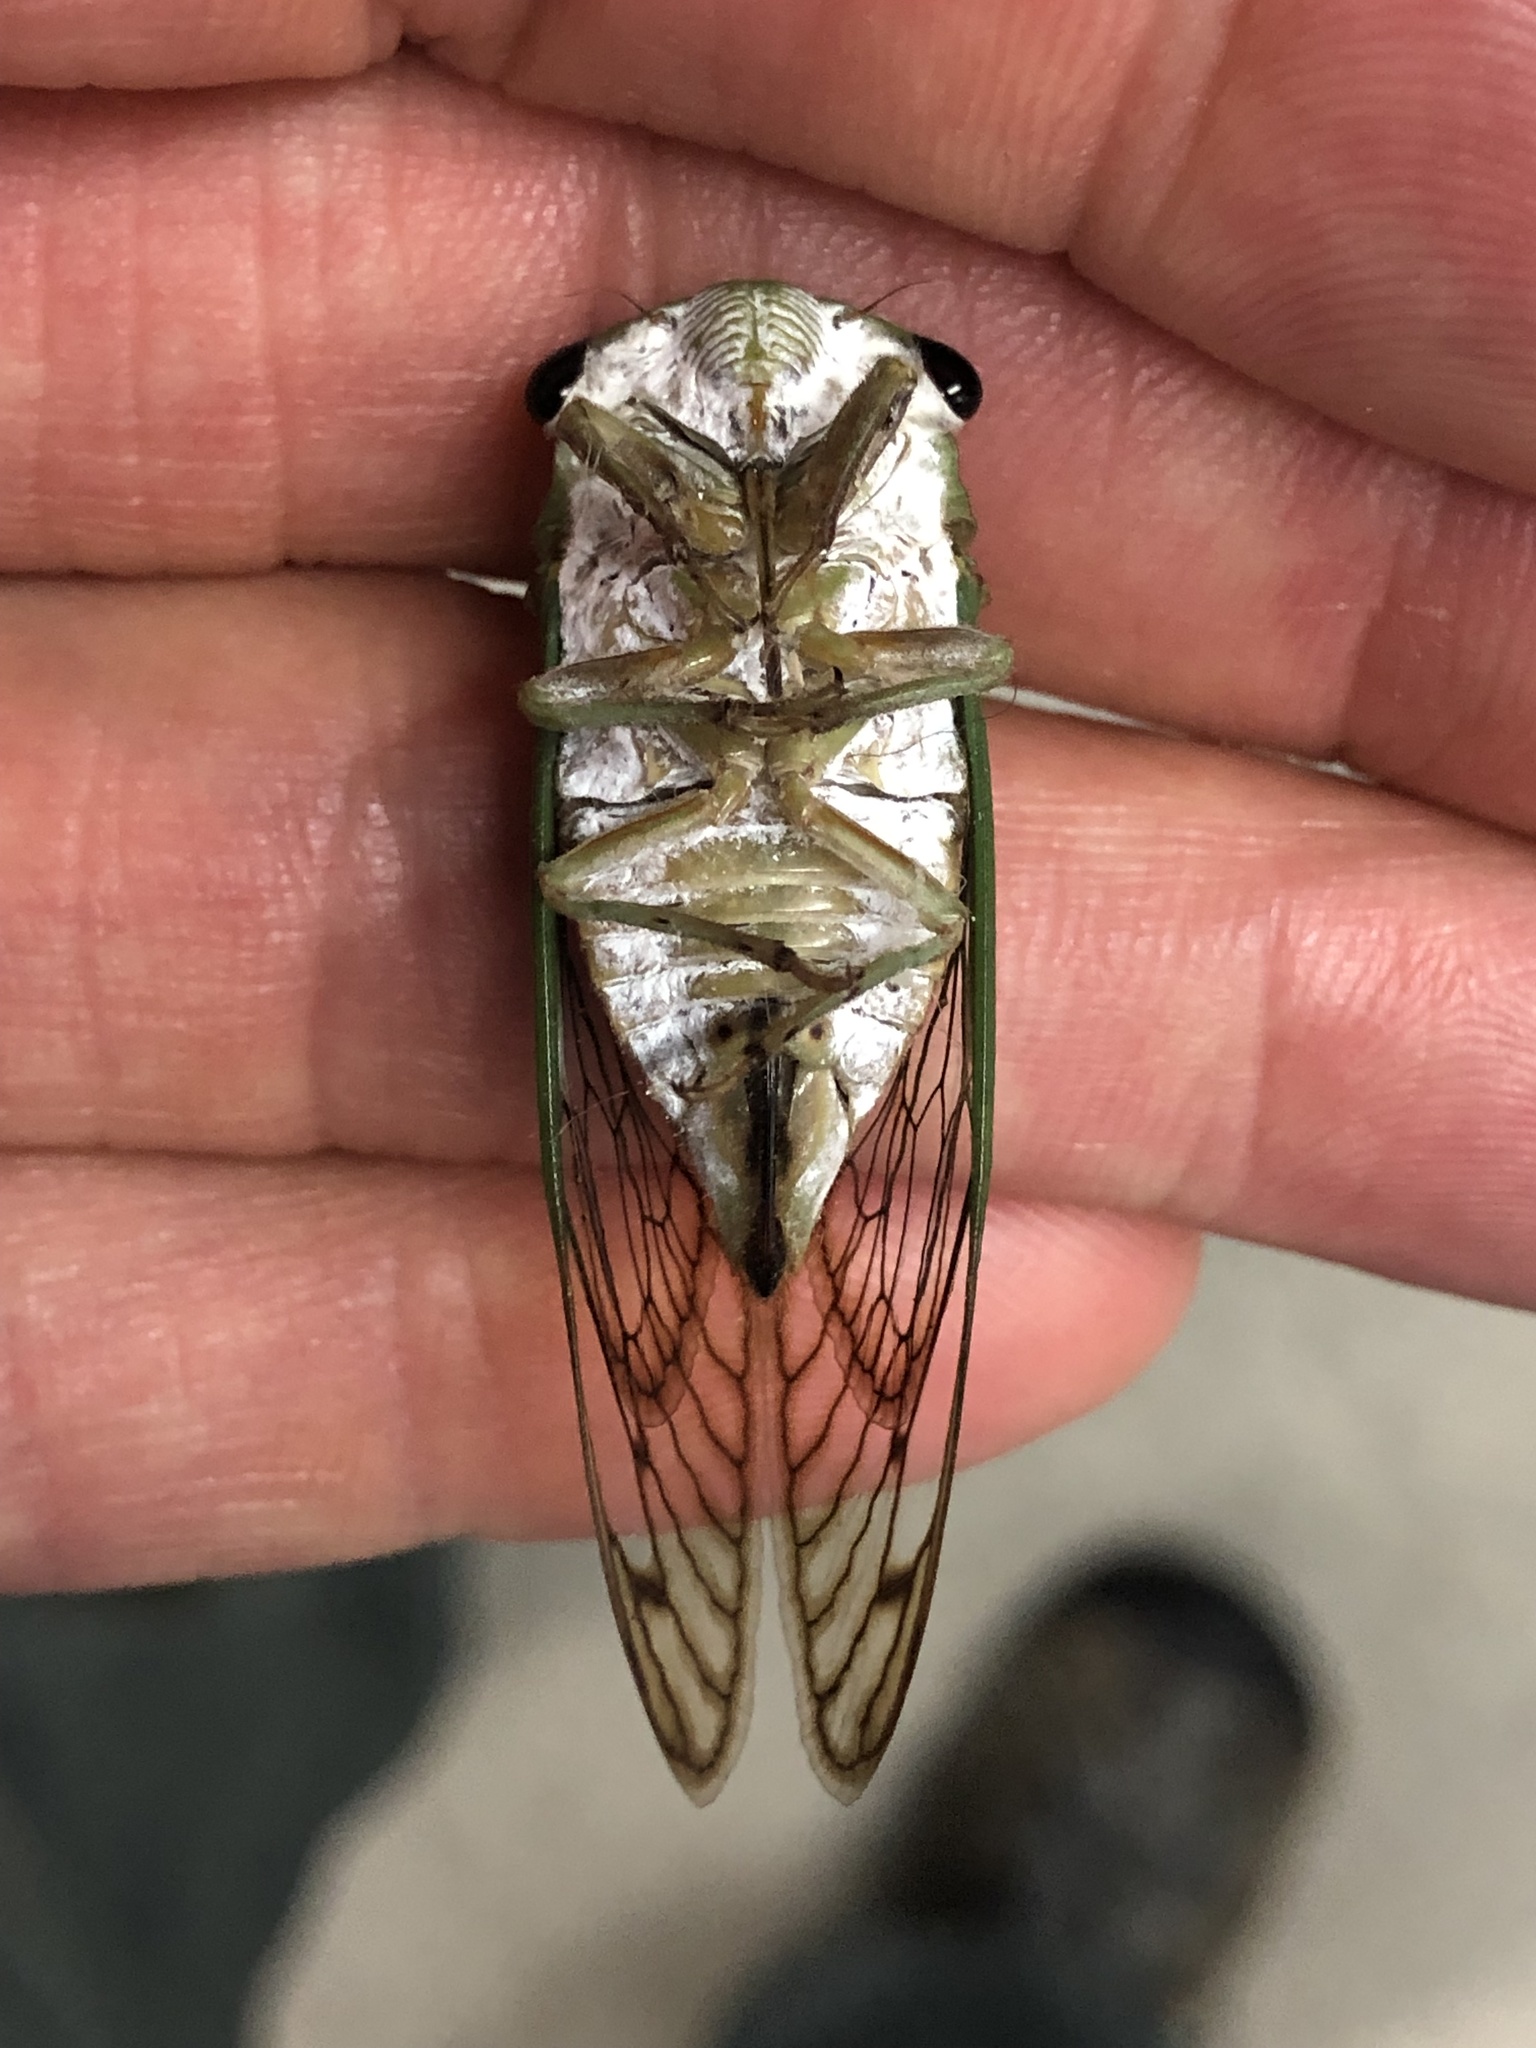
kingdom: Animalia
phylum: Arthropoda
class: Insecta
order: Hemiptera
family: Cicadidae
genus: Neotibicen
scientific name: Neotibicen superbus
